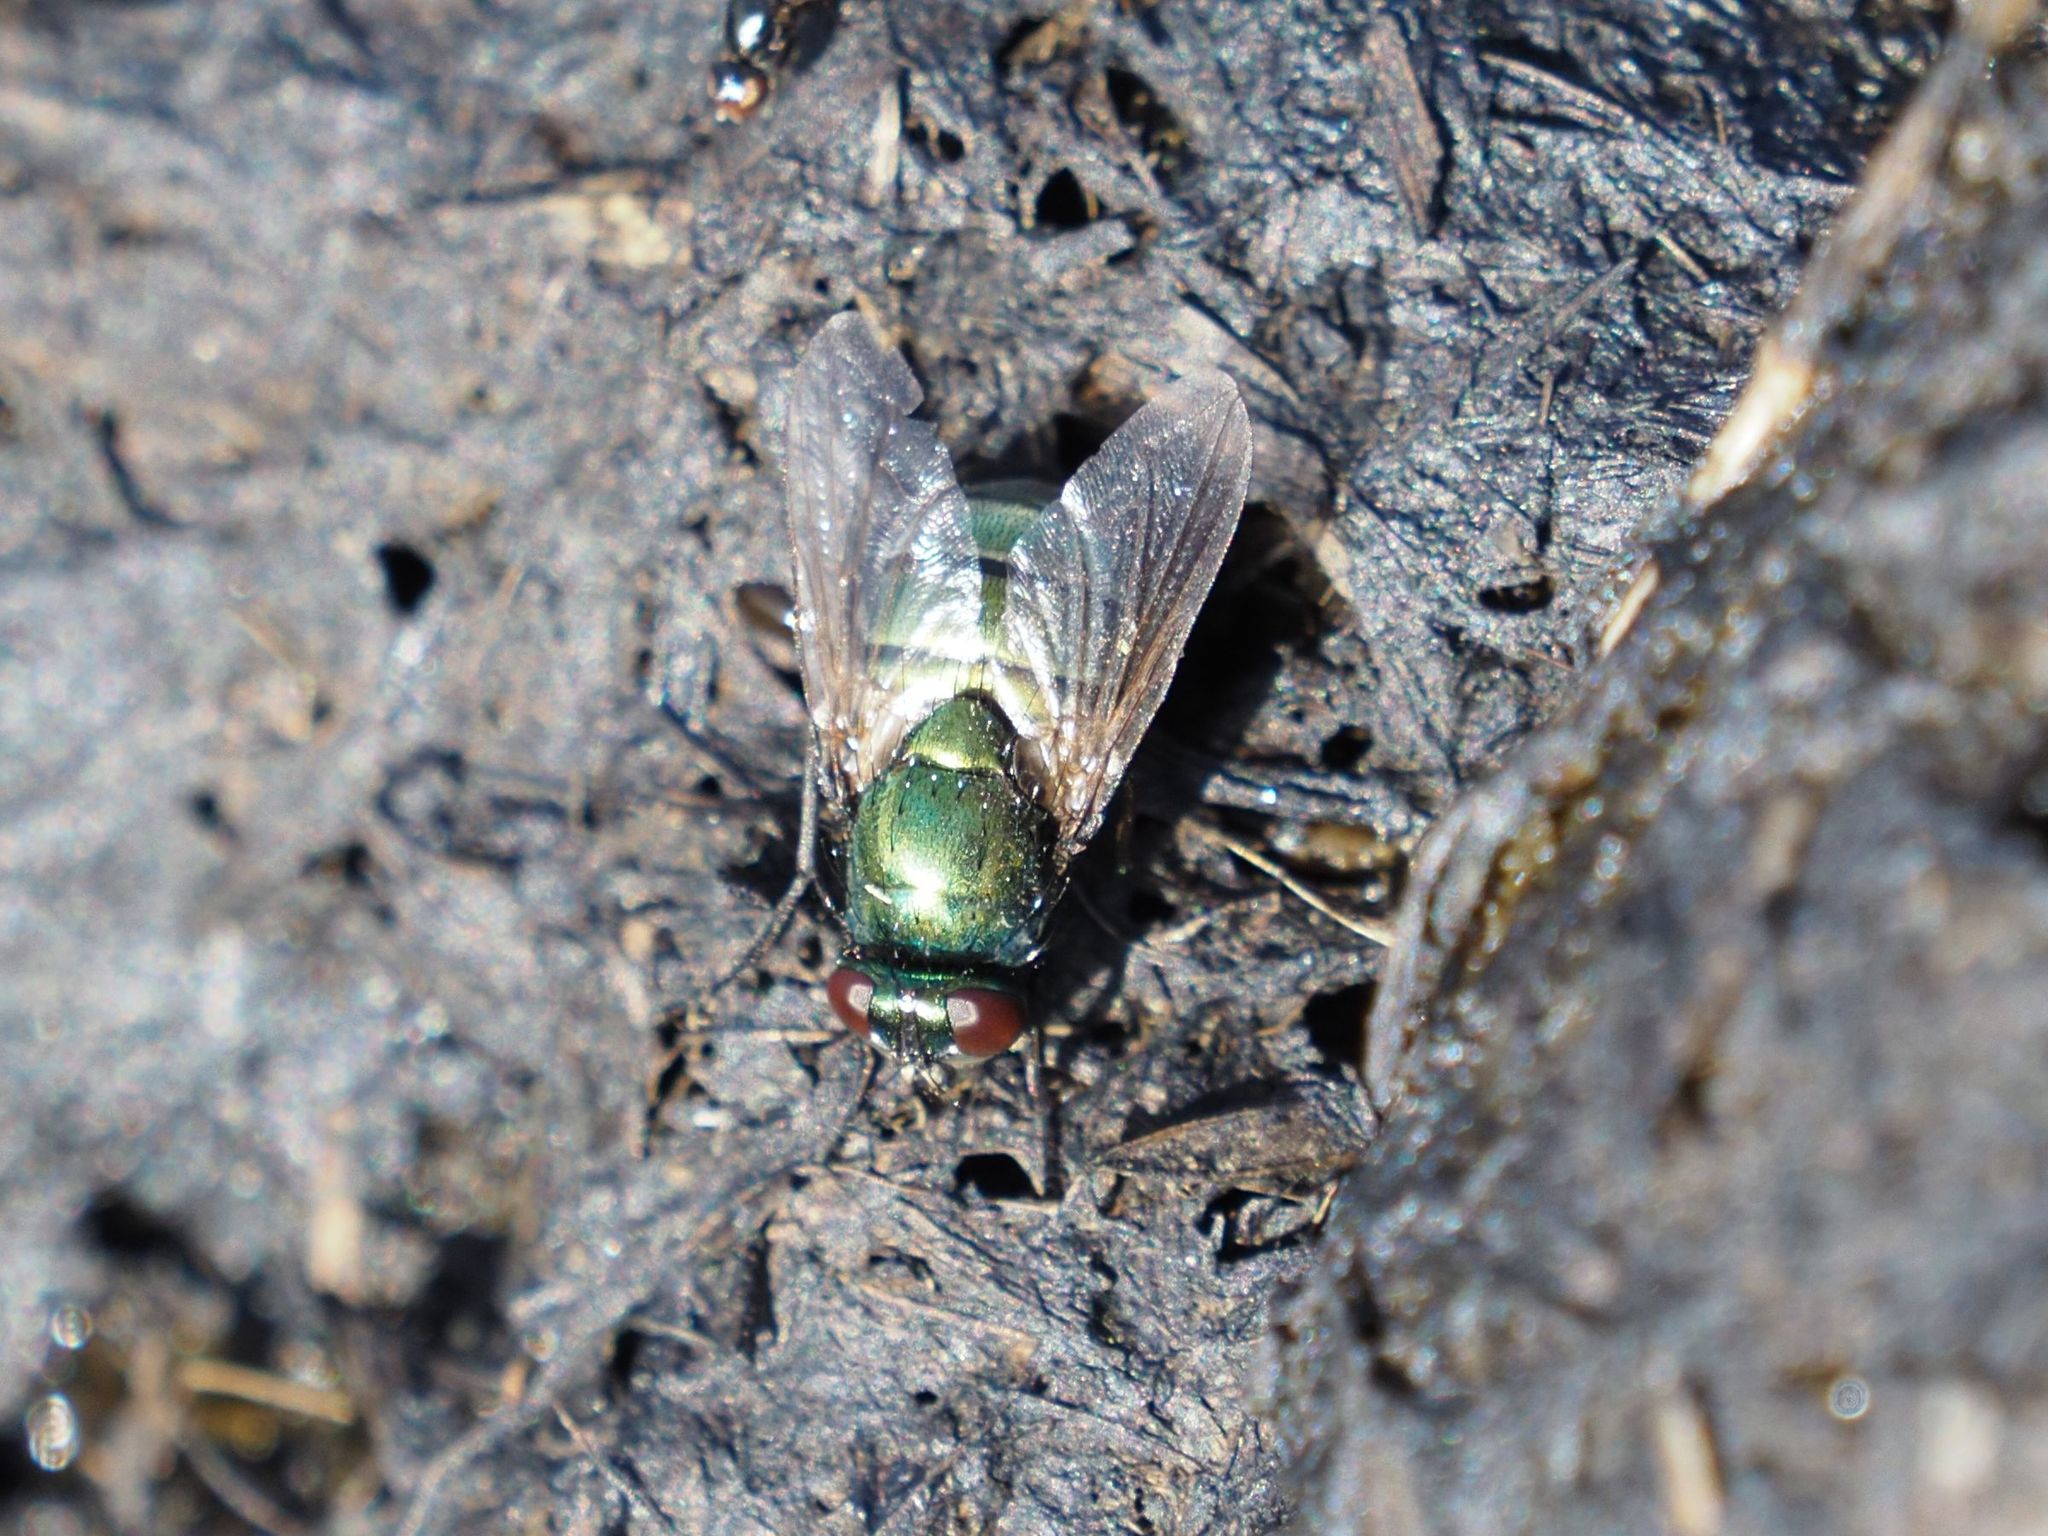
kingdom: Animalia
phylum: Arthropoda
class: Insecta
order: Diptera
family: Muscidae
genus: Neomyia
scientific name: Neomyia cornicina
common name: House fly
